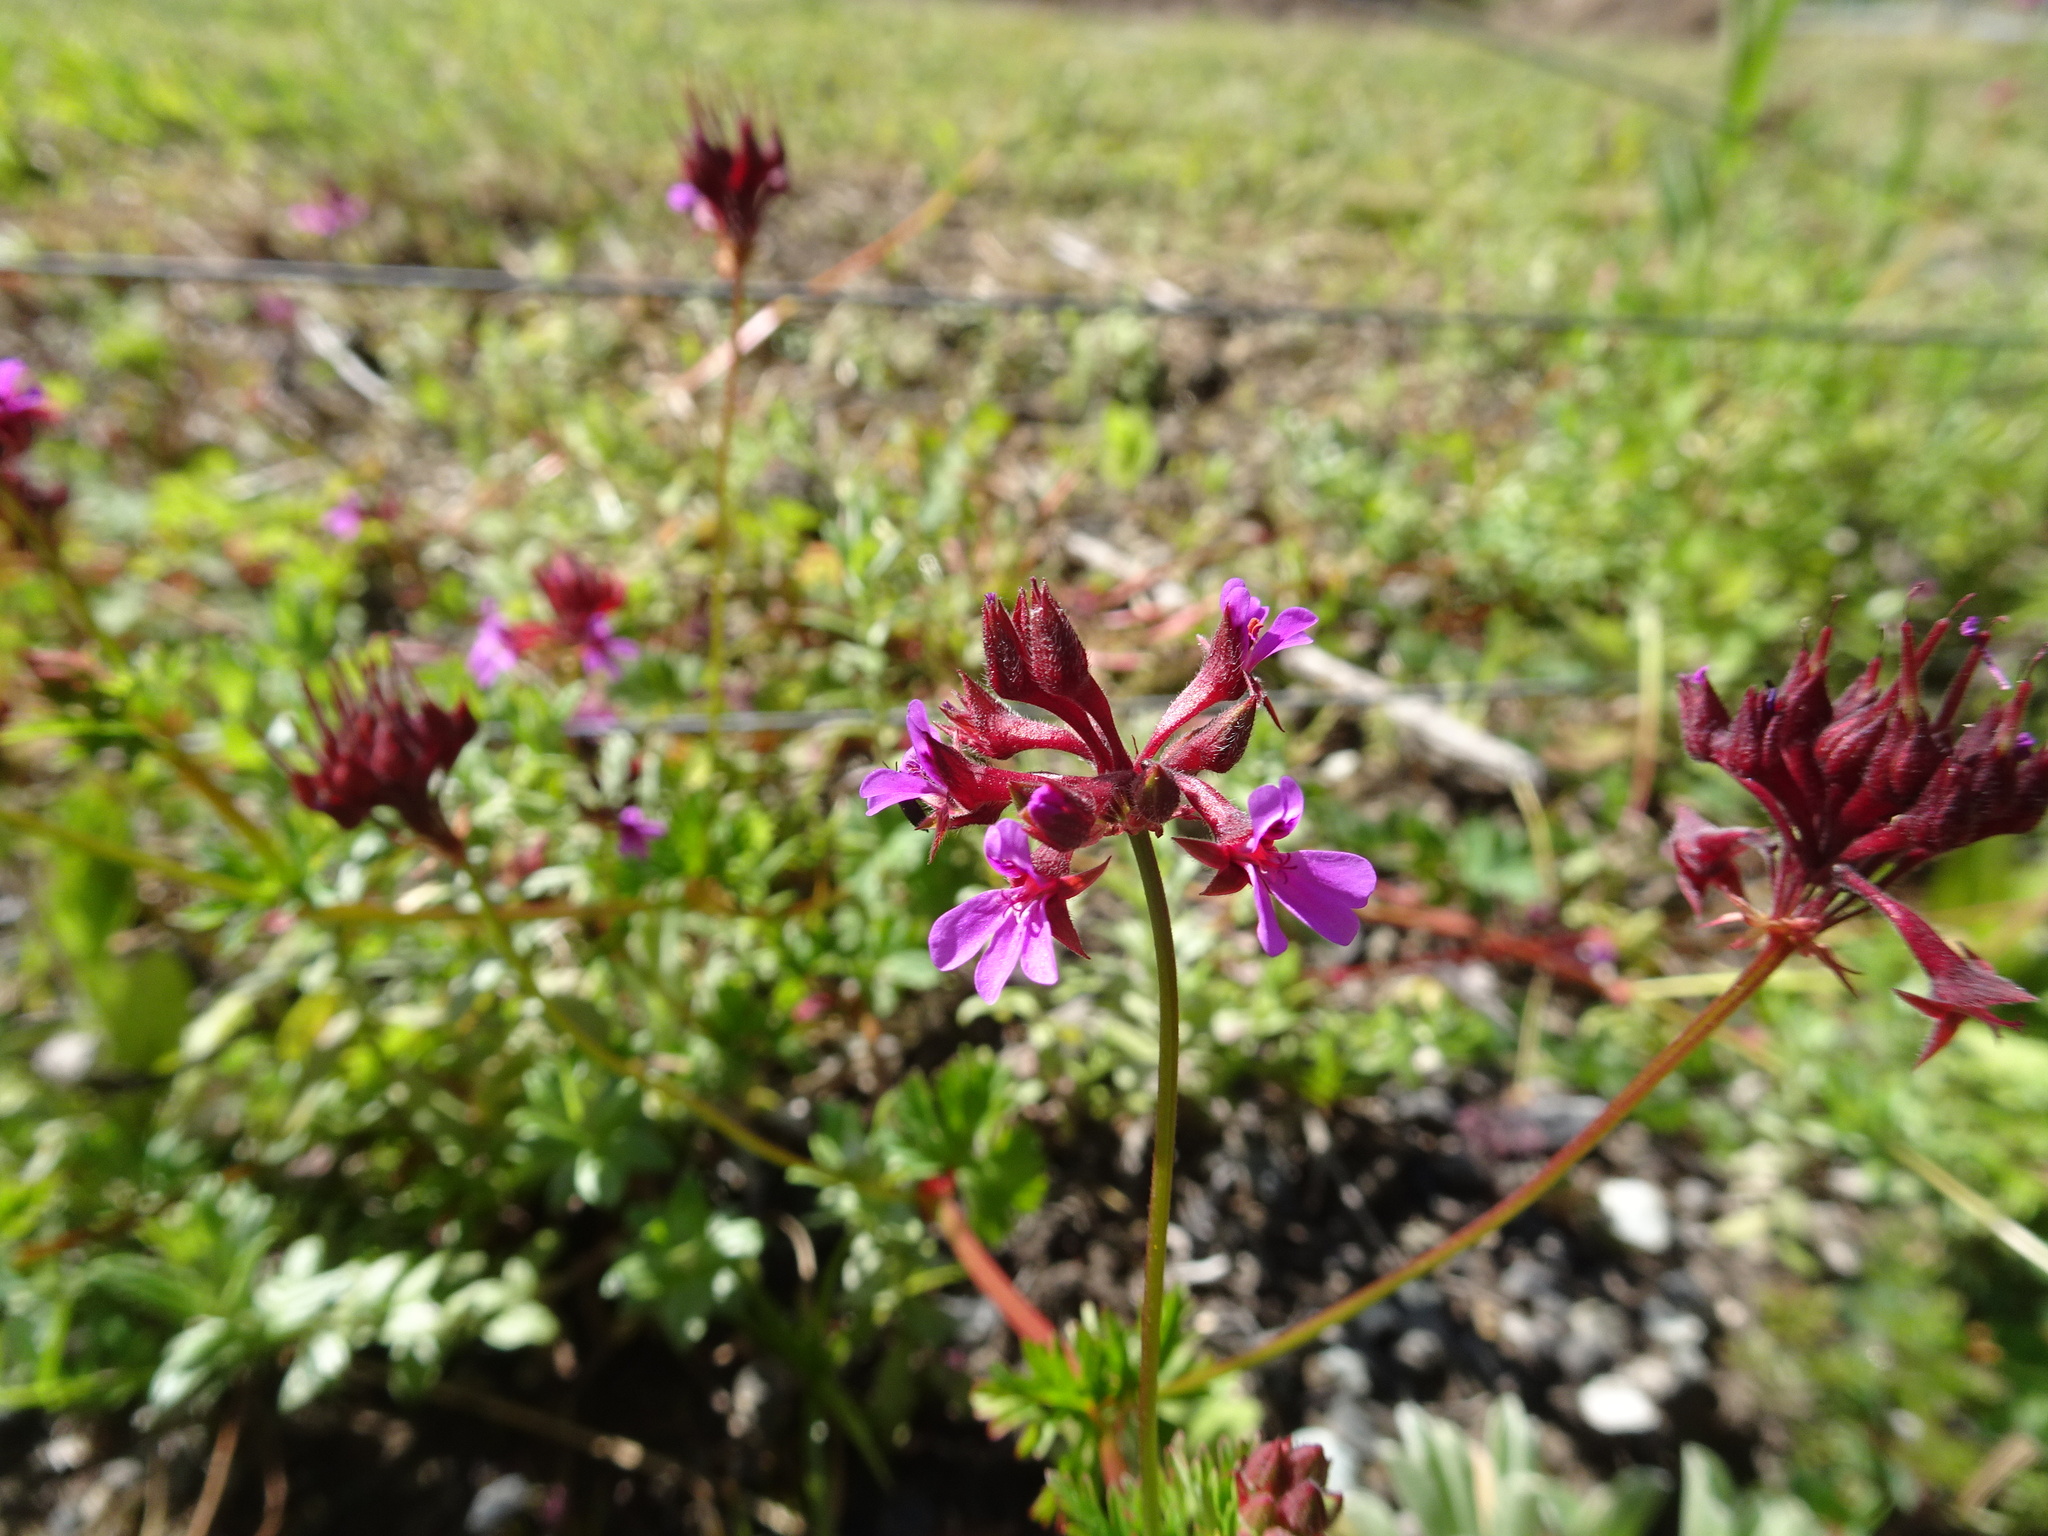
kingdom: Plantae
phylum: Tracheophyta
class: Magnoliopsida
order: Geraniales
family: Geraniaceae
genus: Pelargonium
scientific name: Pelargonium grossularioides
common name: Gooseberry geranium
